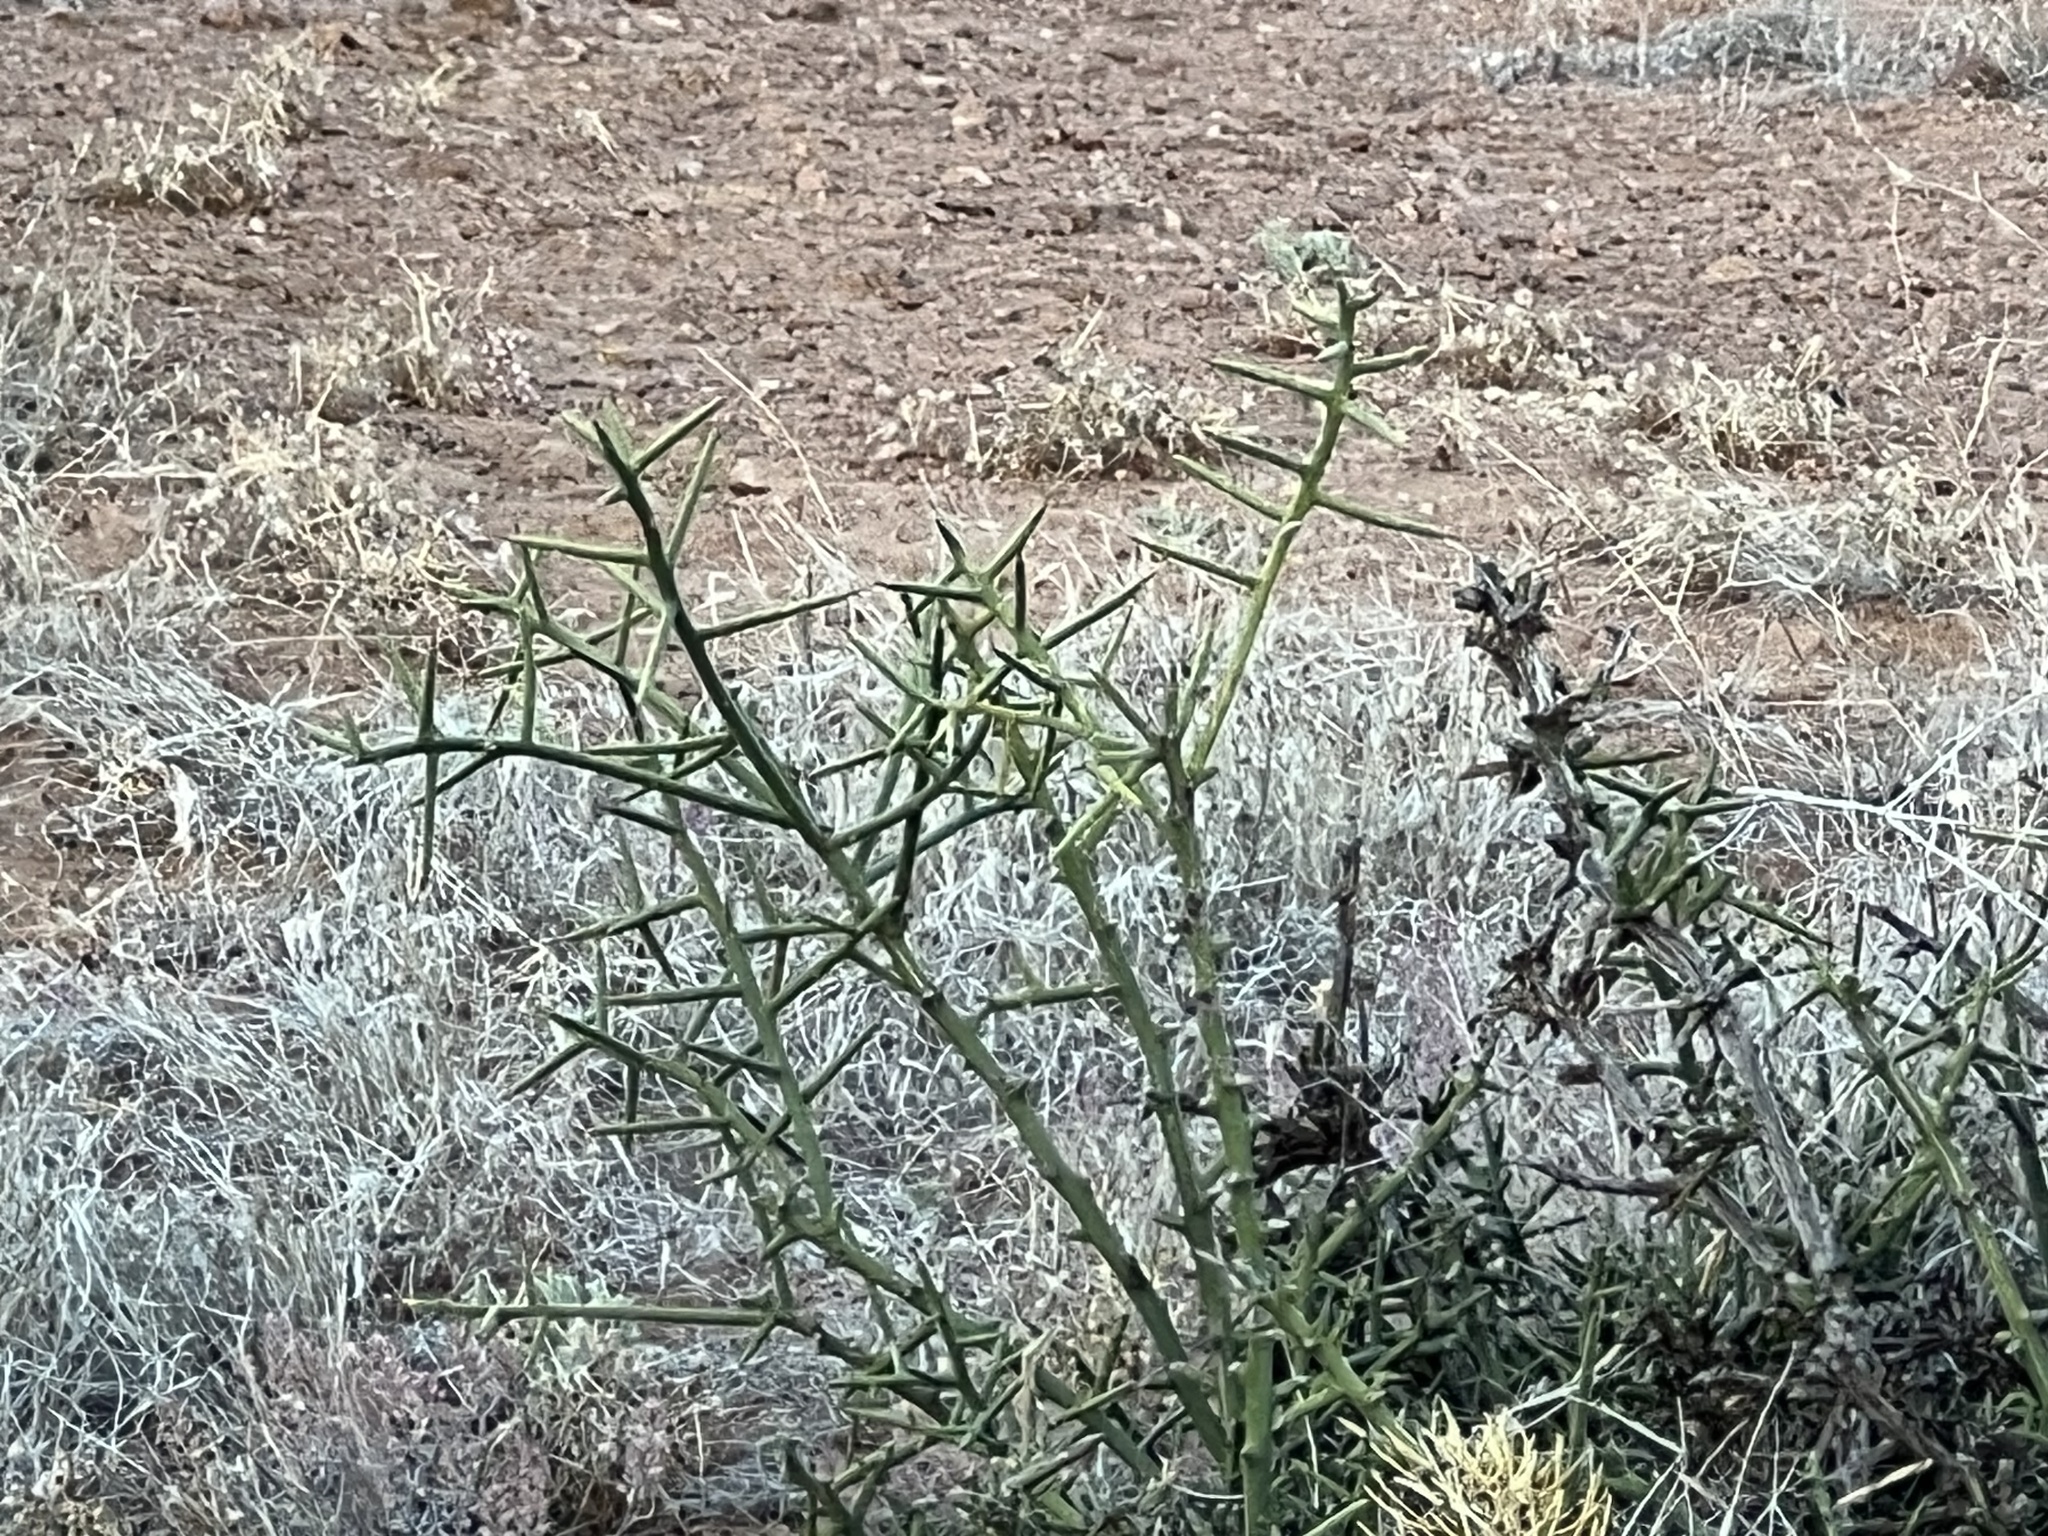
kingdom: Plantae
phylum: Tracheophyta
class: Magnoliopsida
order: Brassicales
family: Koeberliniaceae
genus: Koeberlinia
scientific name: Koeberlinia spinosa
